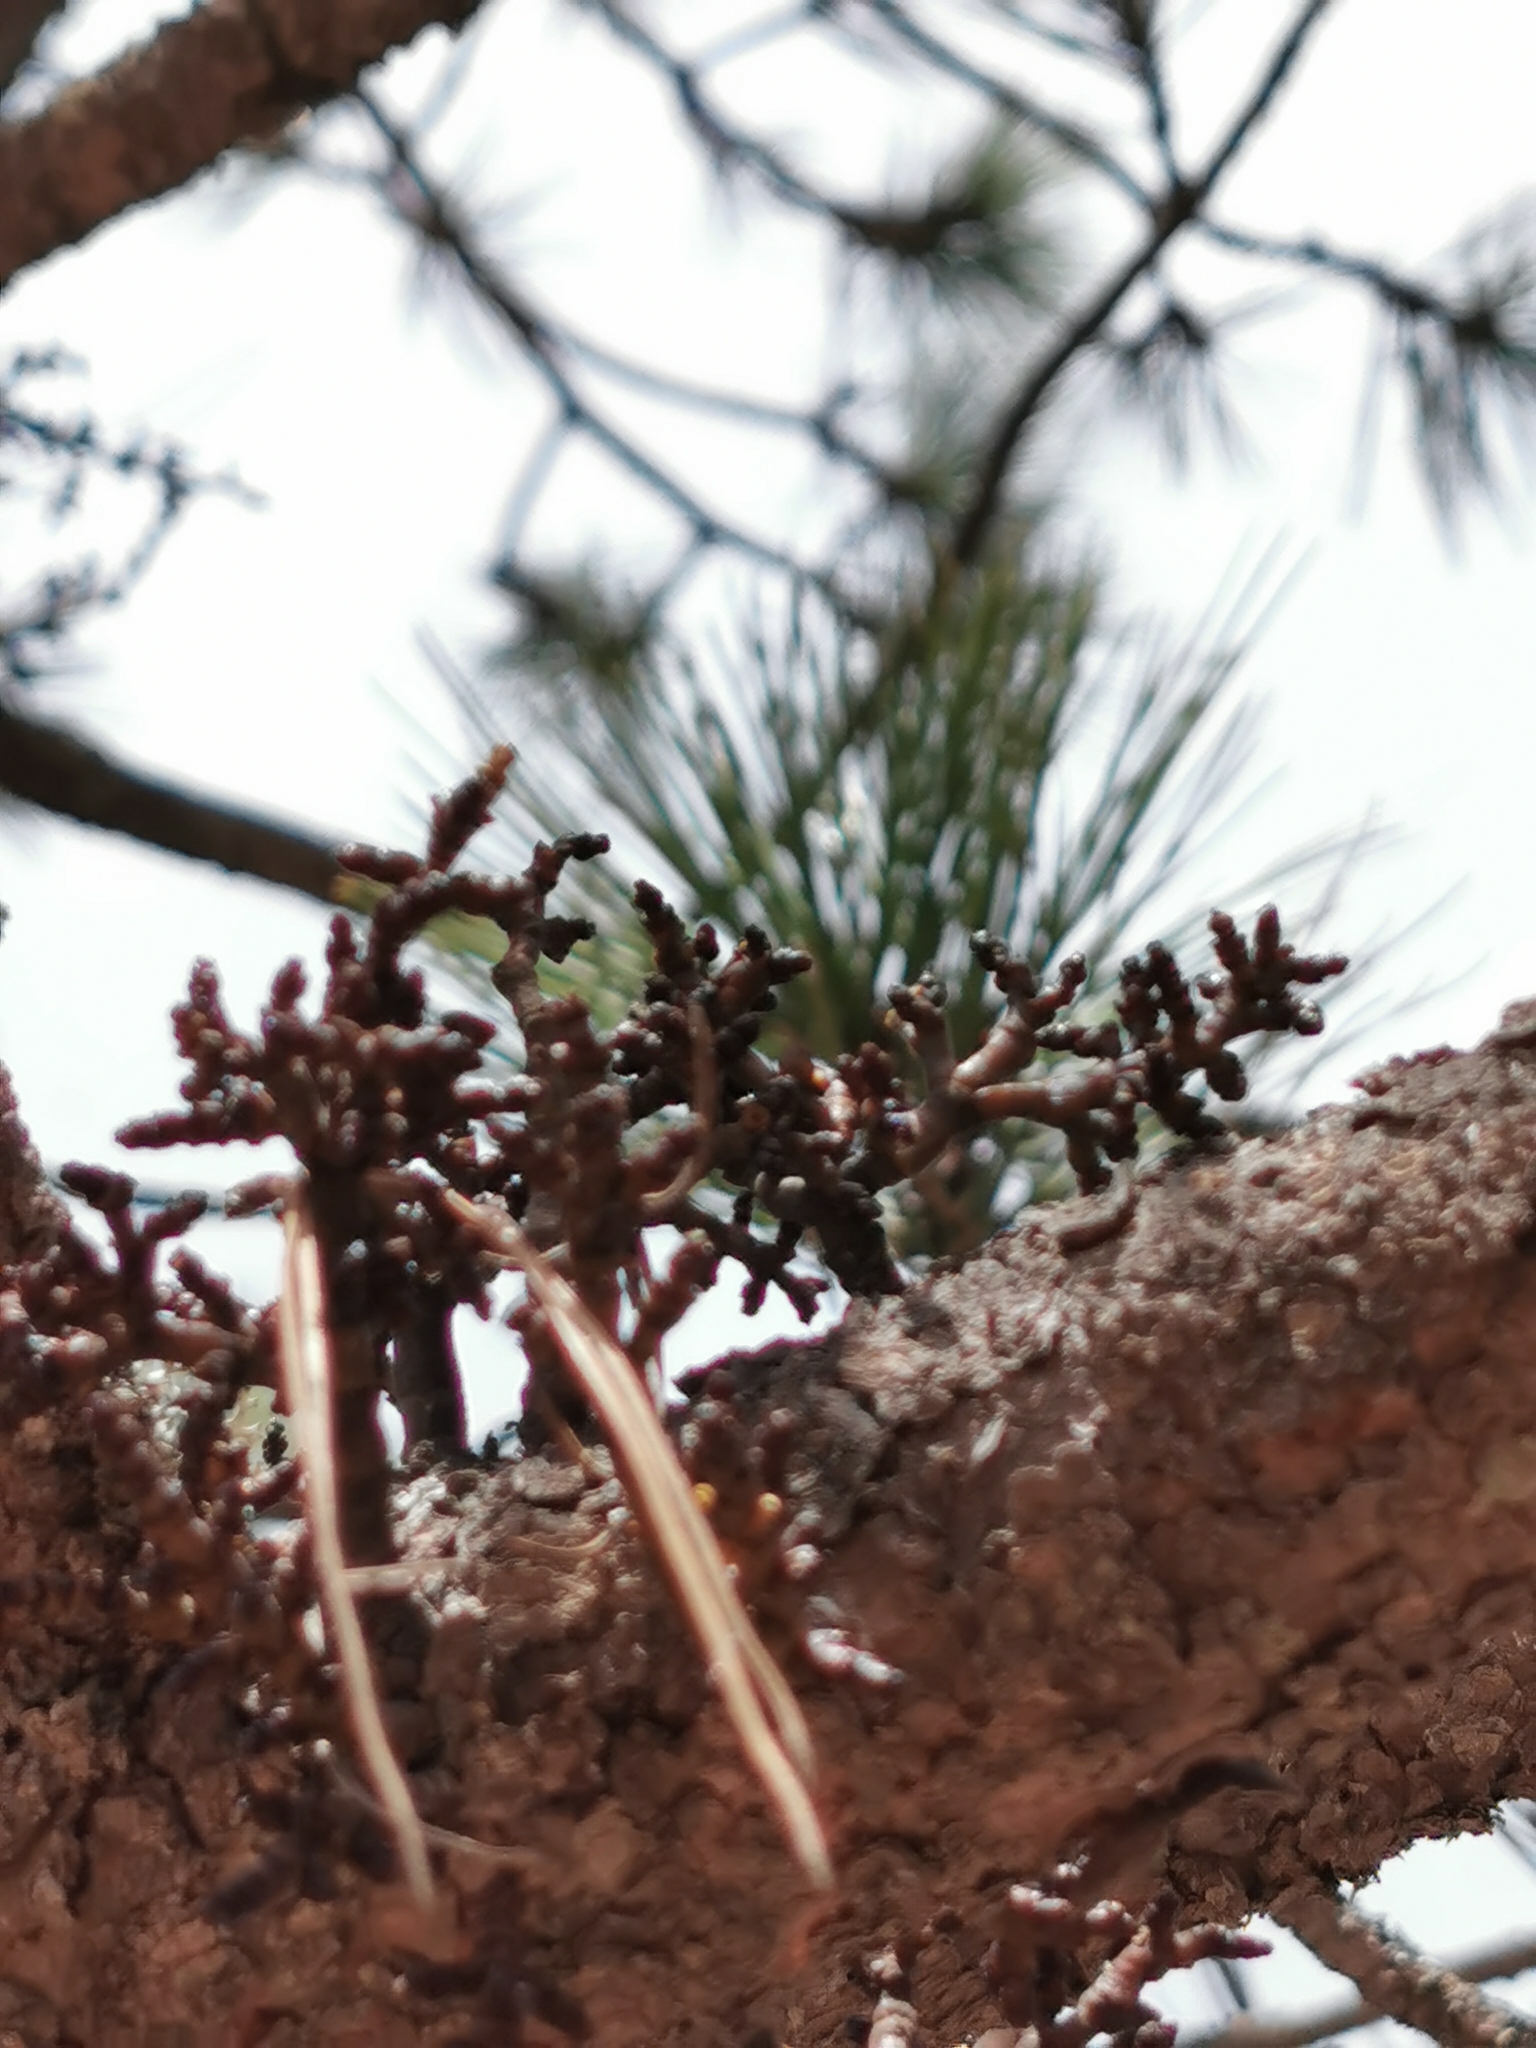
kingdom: Plantae
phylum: Tracheophyta
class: Magnoliopsida
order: Santalales
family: Viscaceae
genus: Arceuthobium
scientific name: Arceuthobium vaginatum
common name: Southwestern dwarf-mistletoe
